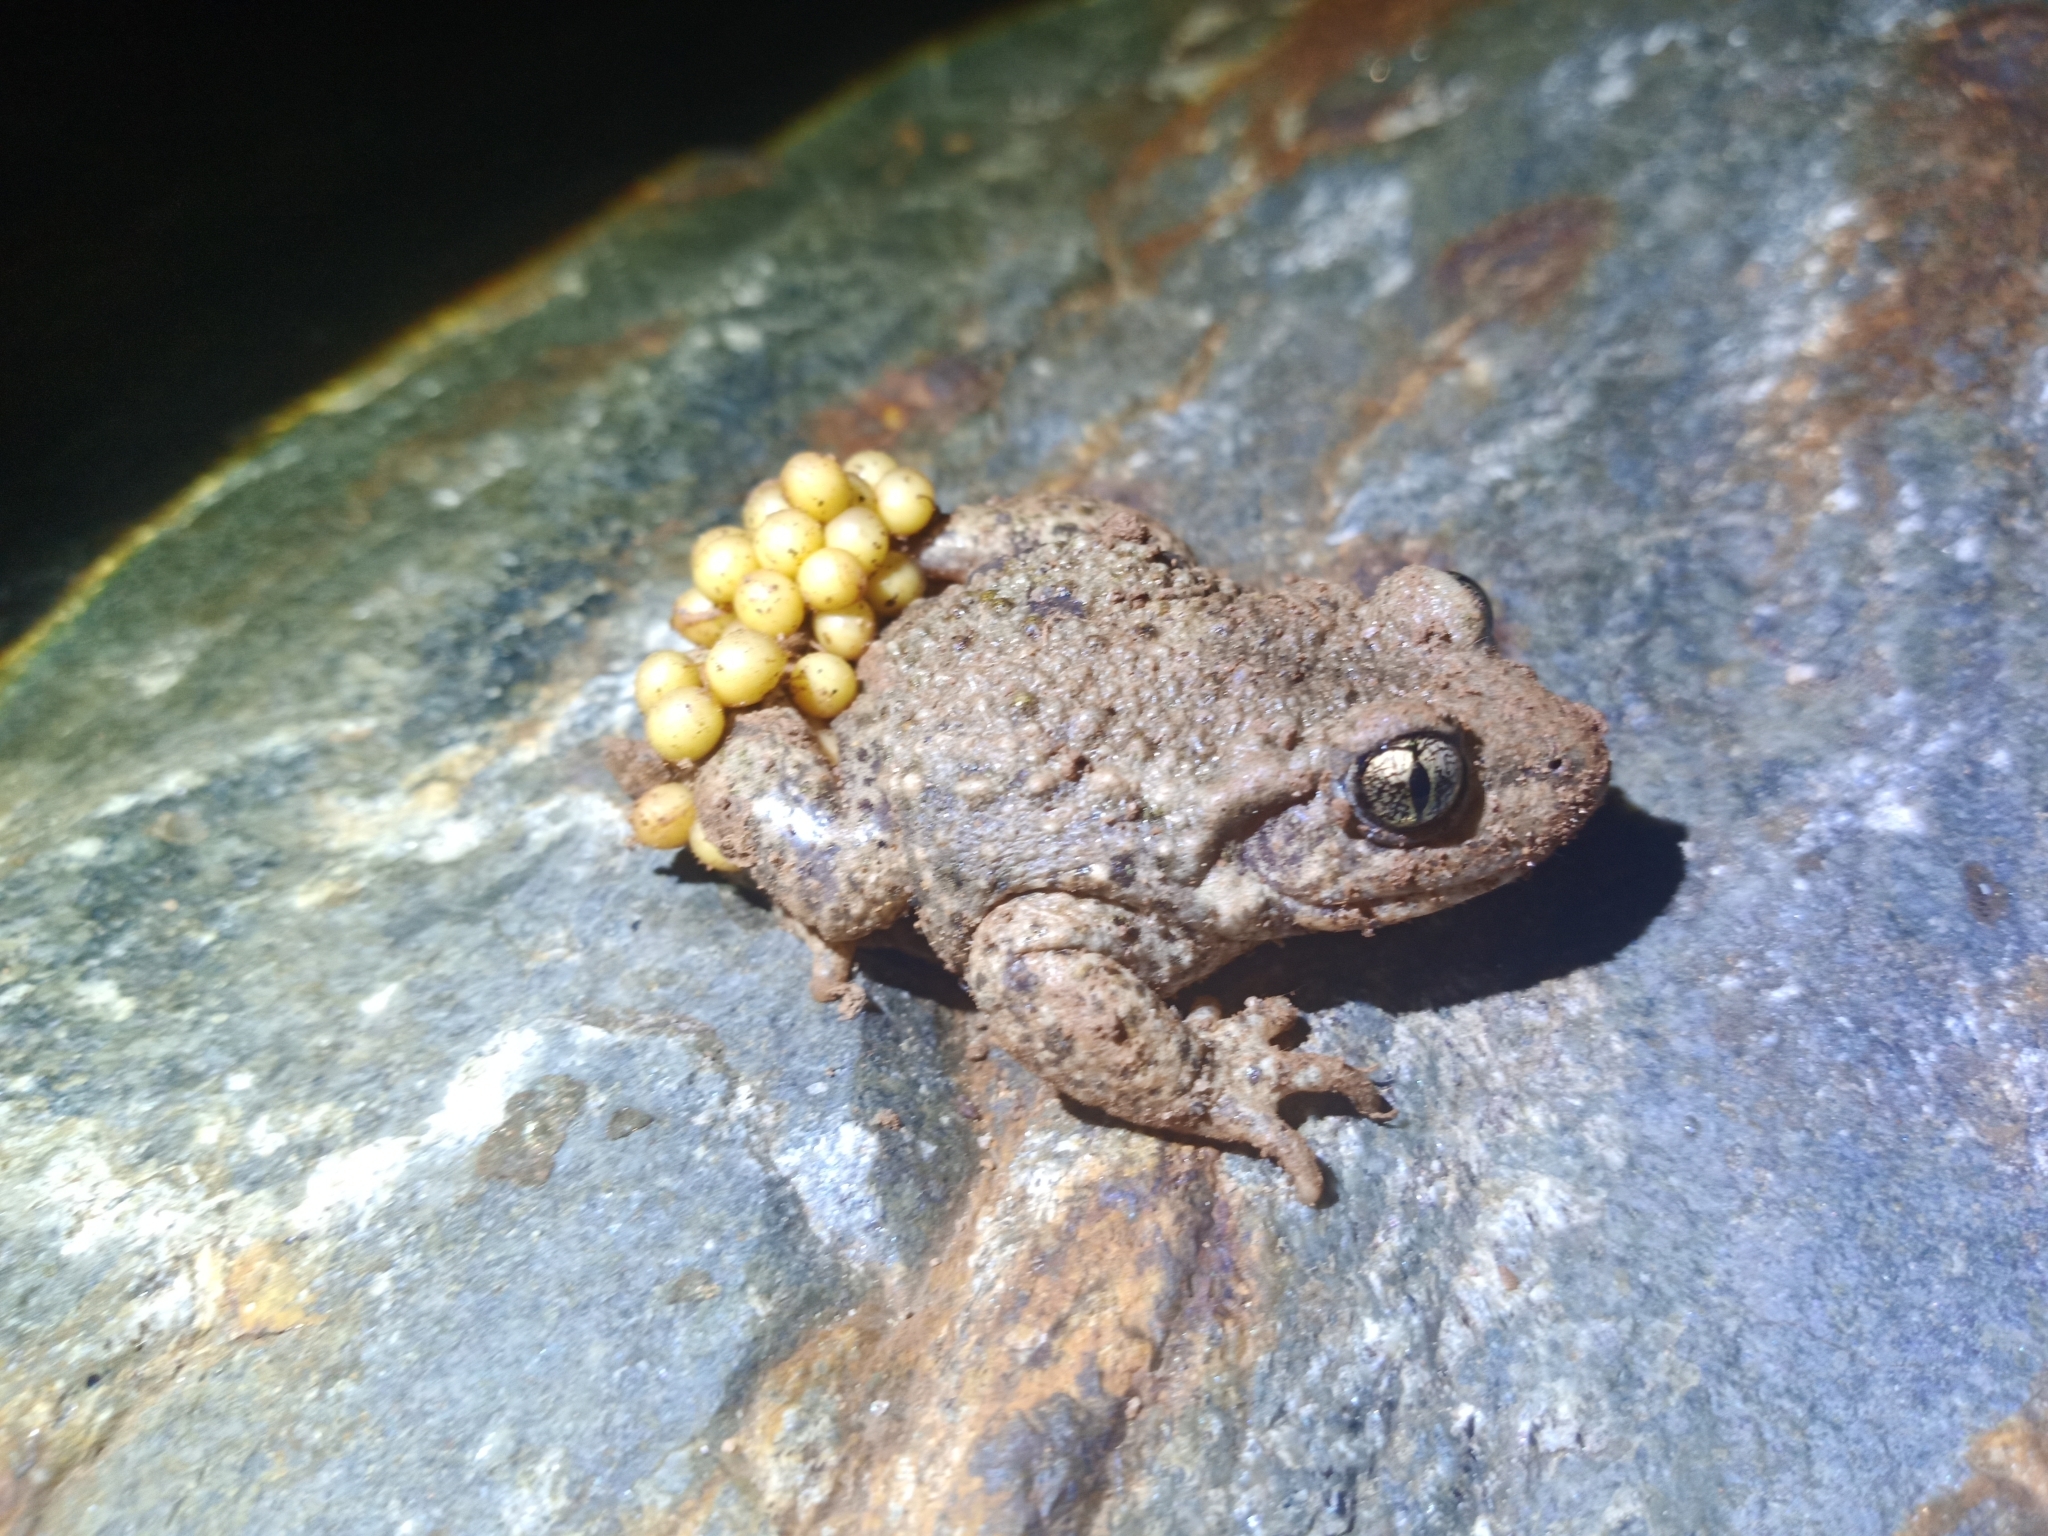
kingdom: Animalia
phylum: Chordata
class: Amphibia
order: Anura
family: Alytidae
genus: Alytes
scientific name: Alytes obstetricans
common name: Midwife toad
